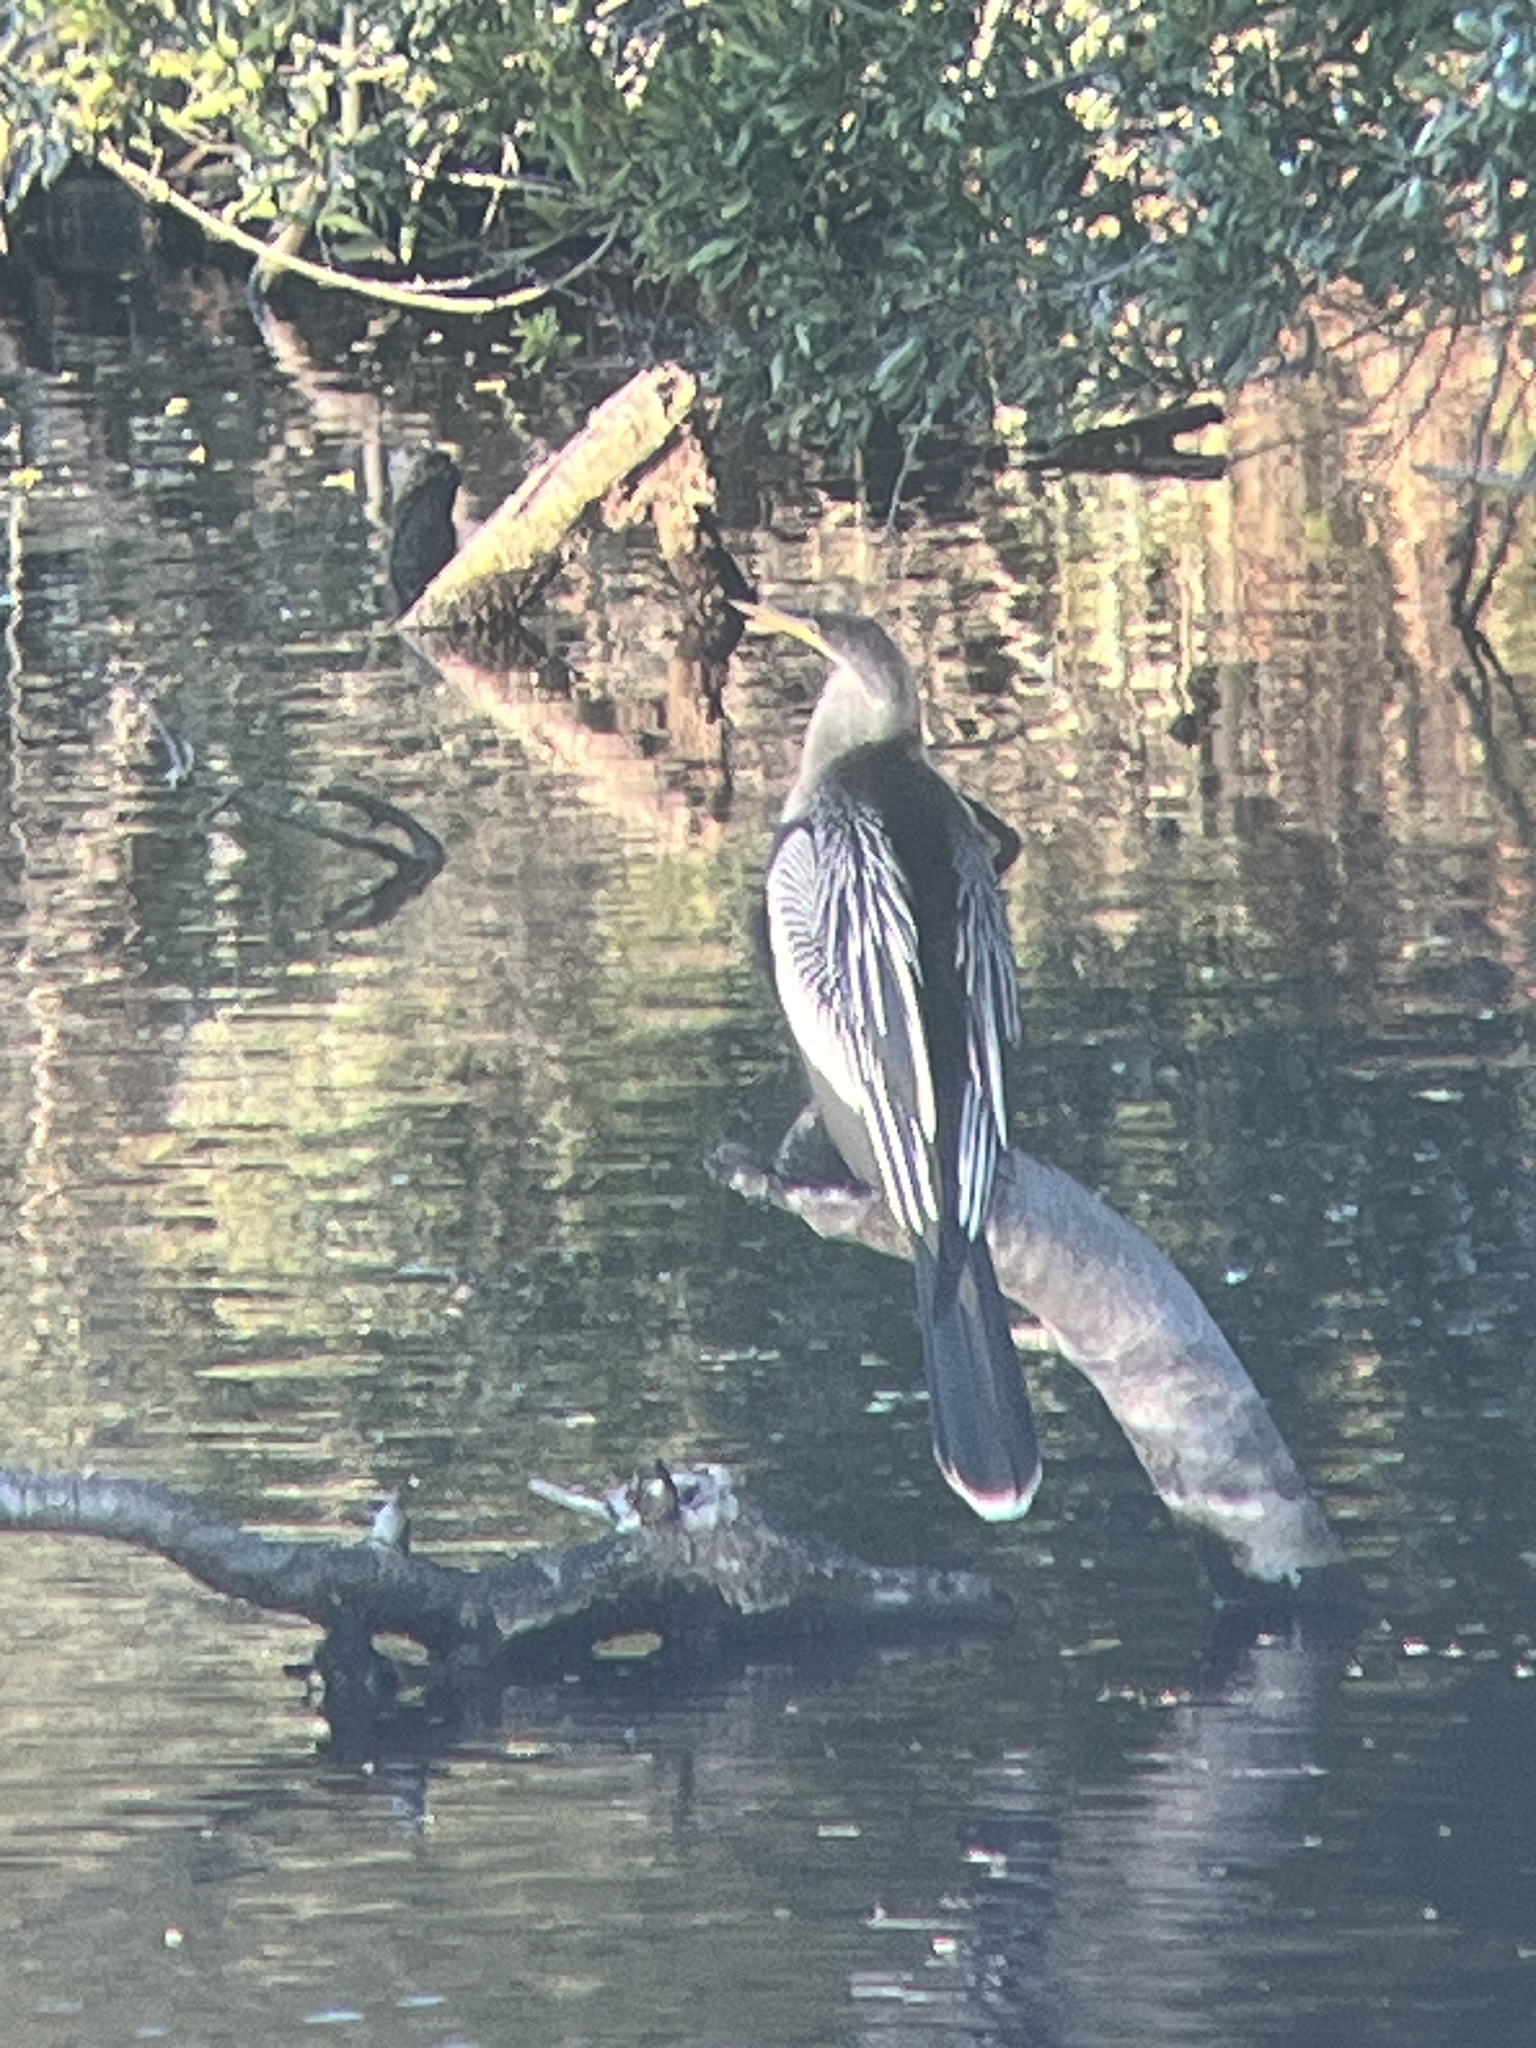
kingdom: Animalia
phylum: Chordata
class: Aves
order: Suliformes
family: Anhingidae
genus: Anhinga
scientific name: Anhinga anhinga
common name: Anhinga
